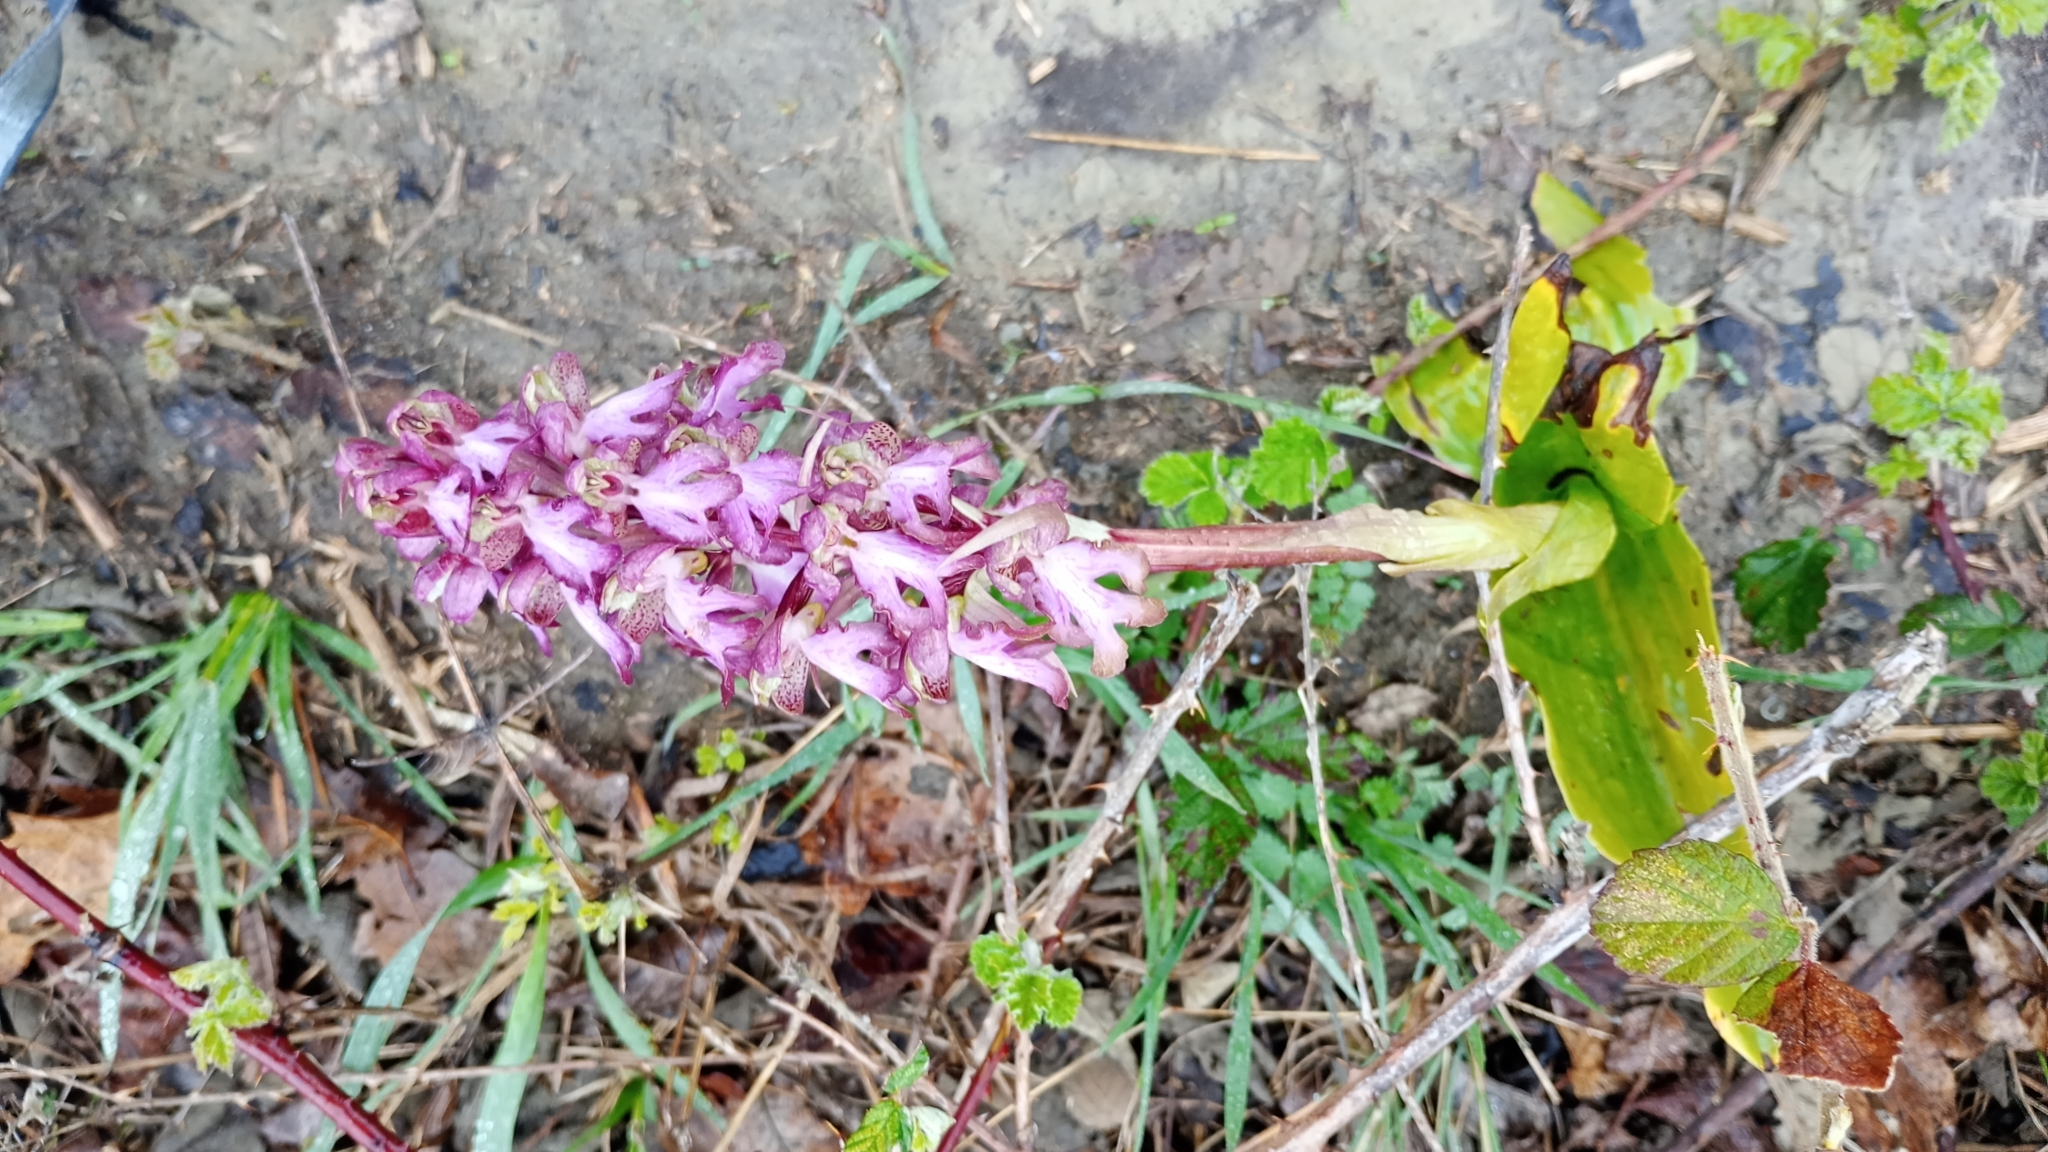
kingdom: Plantae
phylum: Tracheophyta
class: Liliopsida
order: Asparagales
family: Orchidaceae
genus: Himantoglossum
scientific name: Himantoglossum robertianum
